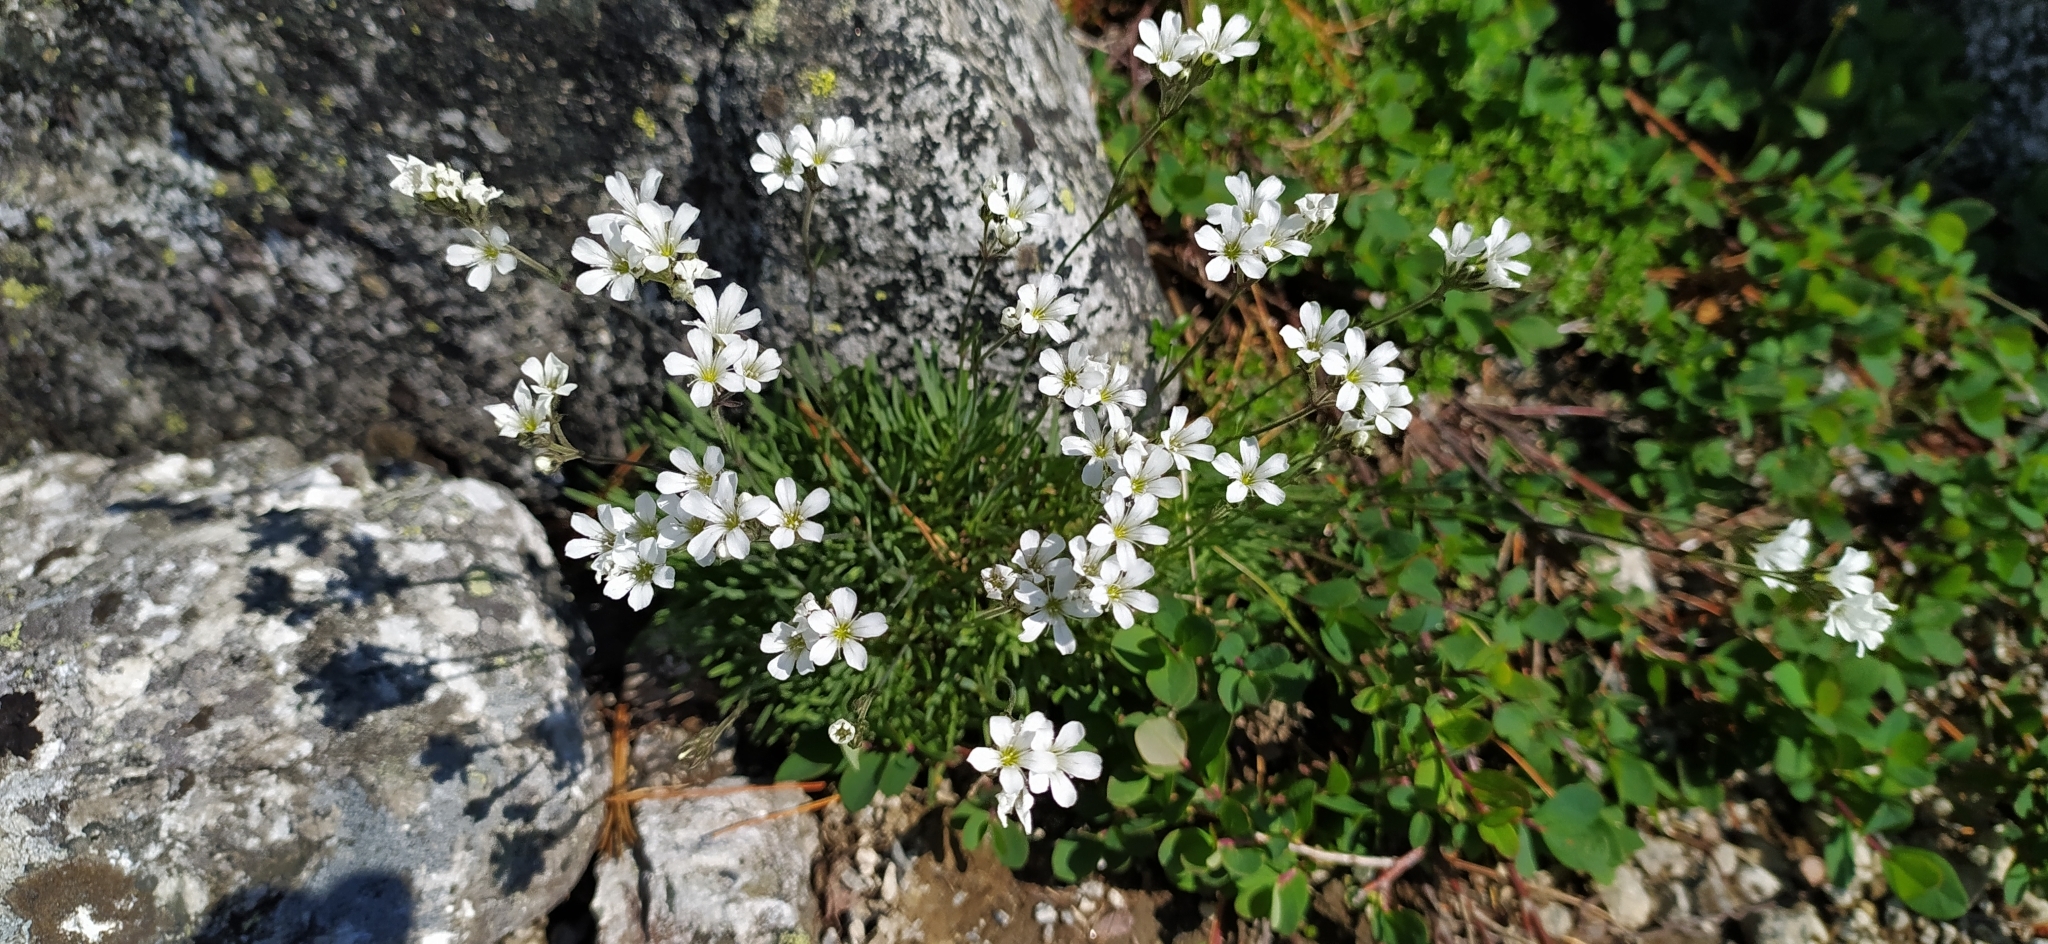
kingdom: Plantae
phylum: Tracheophyta
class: Magnoliopsida
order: Caryophyllales
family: Caryophyllaceae
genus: Gypsophila
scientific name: Gypsophila uralensis
